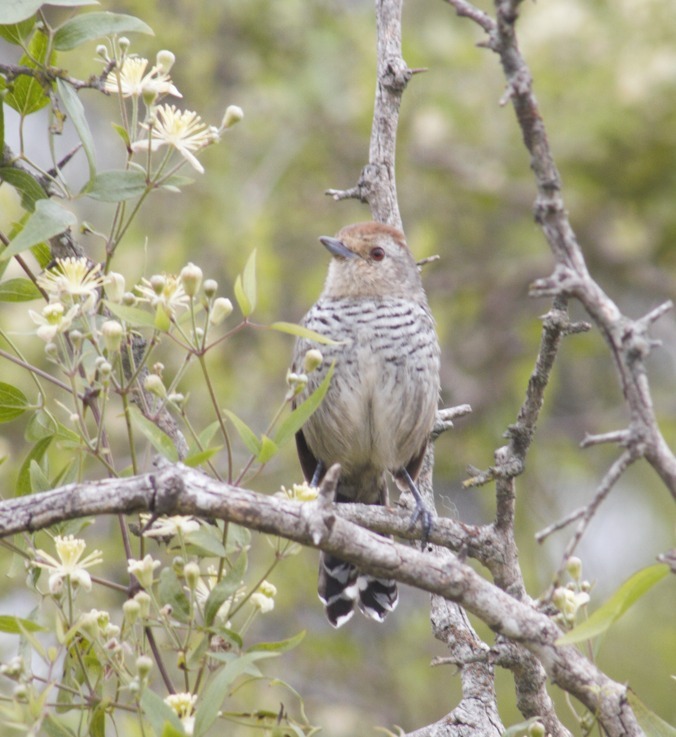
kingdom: Animalia
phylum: Chordata
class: Aves
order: Passeriformes
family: Thamnophilidae
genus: Thamnophilus
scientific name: Thamnophilus ruficapillus
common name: Rufous-capped antshrike
